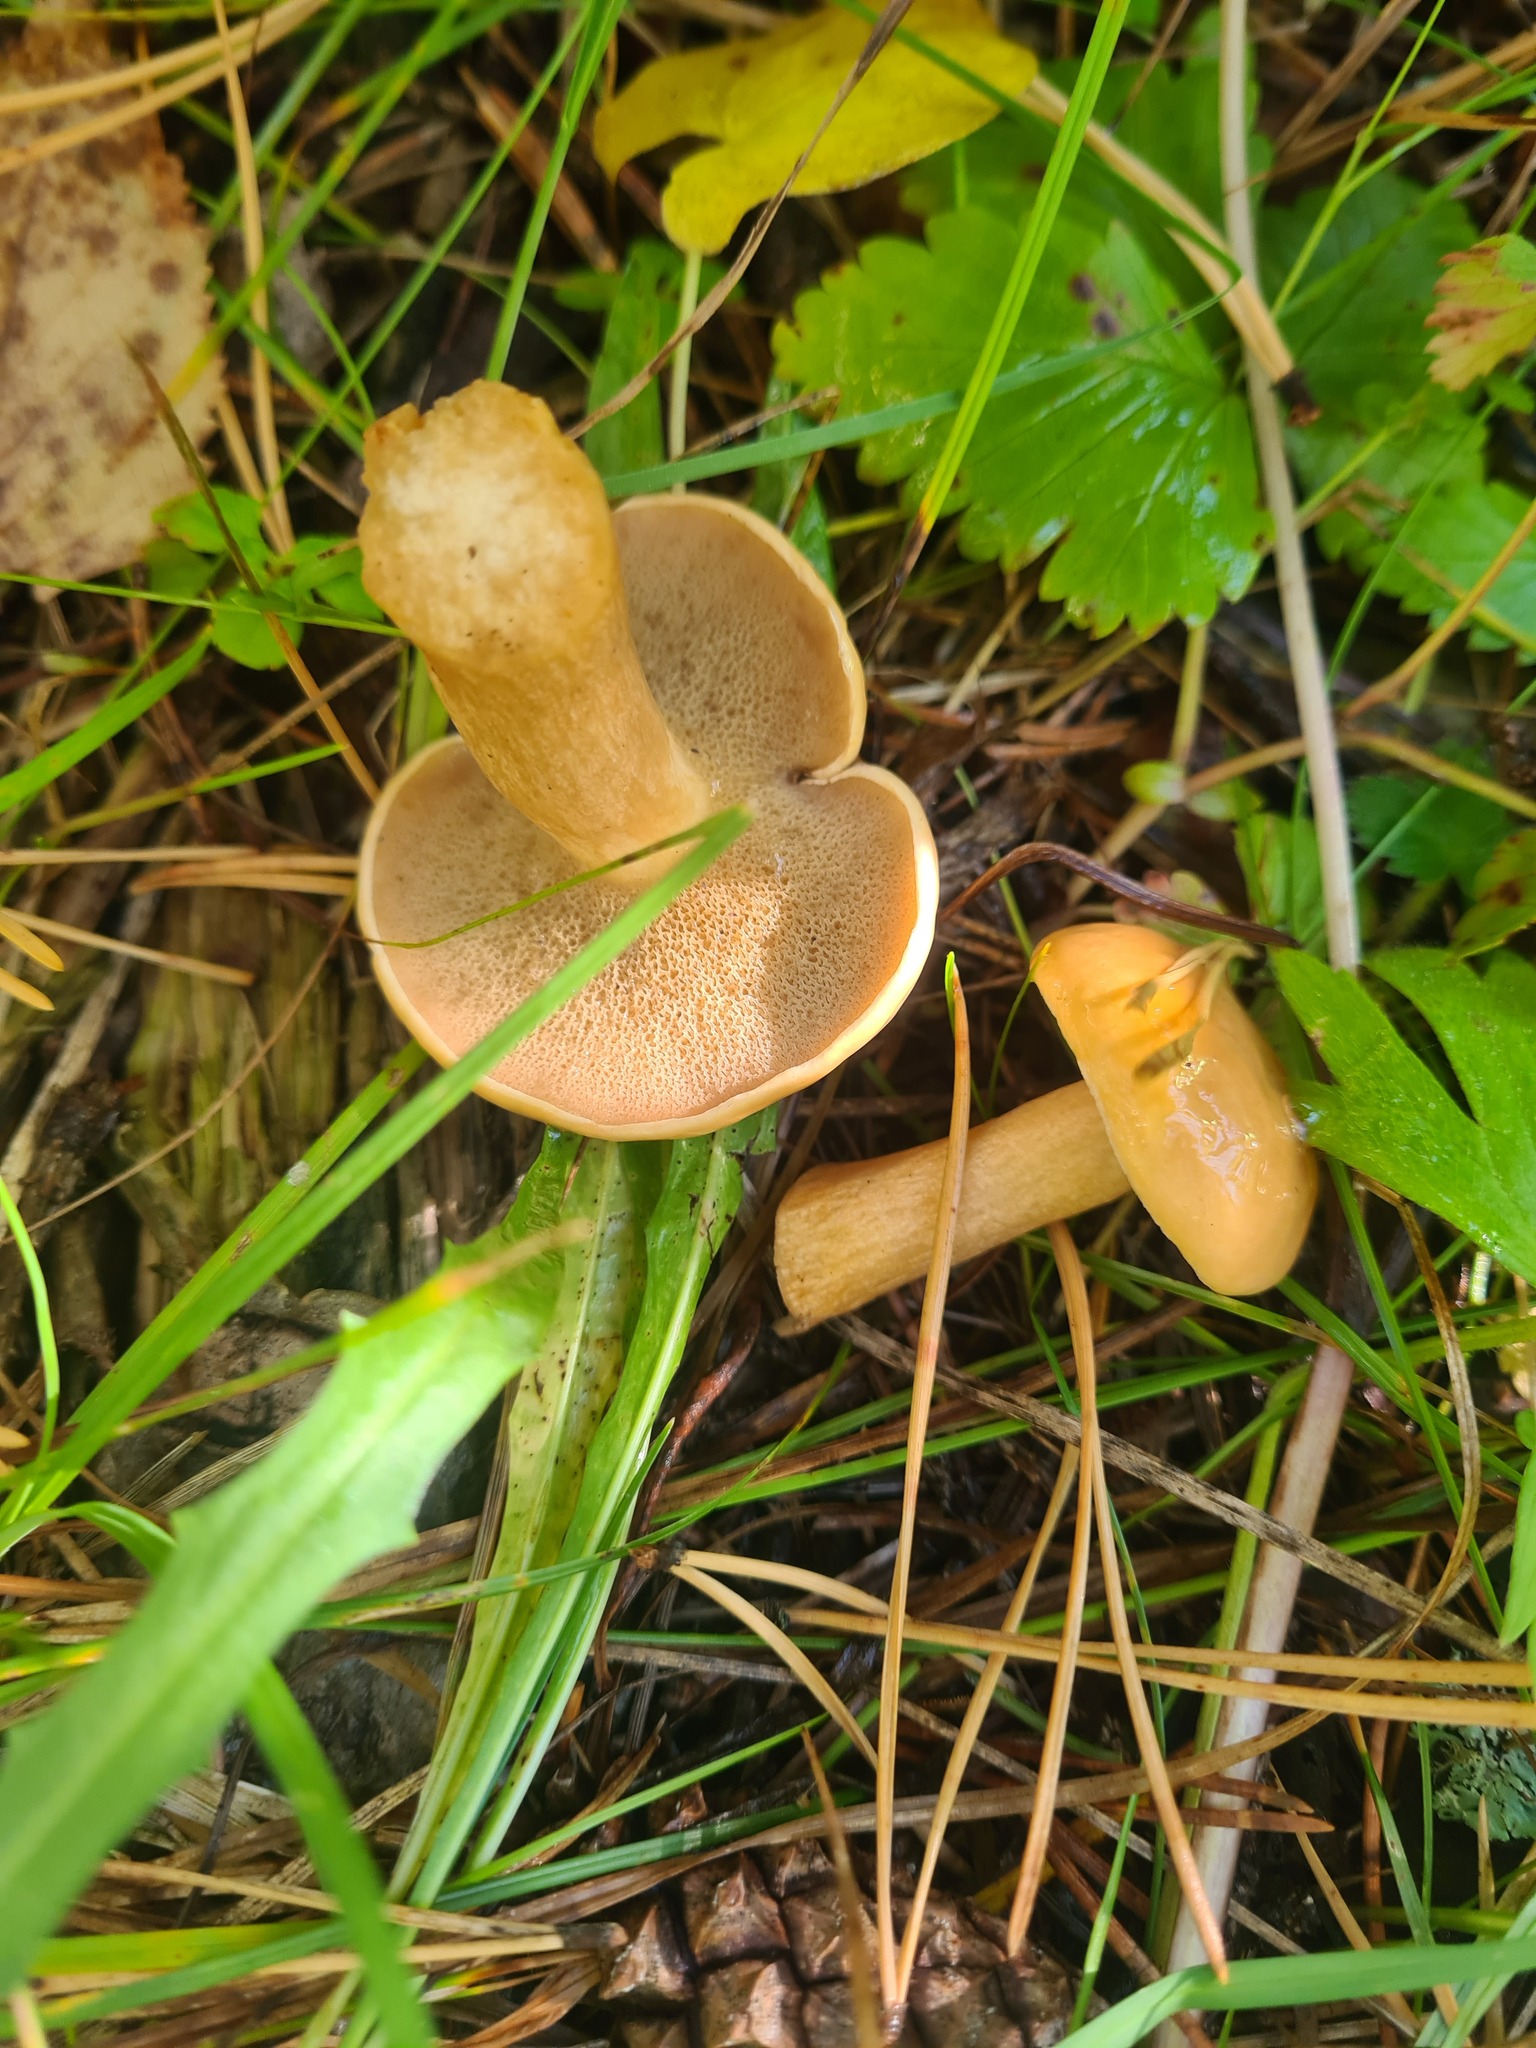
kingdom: Fungi
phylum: Basidiomycota
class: Agaricomycetes
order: Boletales
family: Suillaceae
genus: Suillus
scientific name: Suillus variegatus
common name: Velvet bolete
